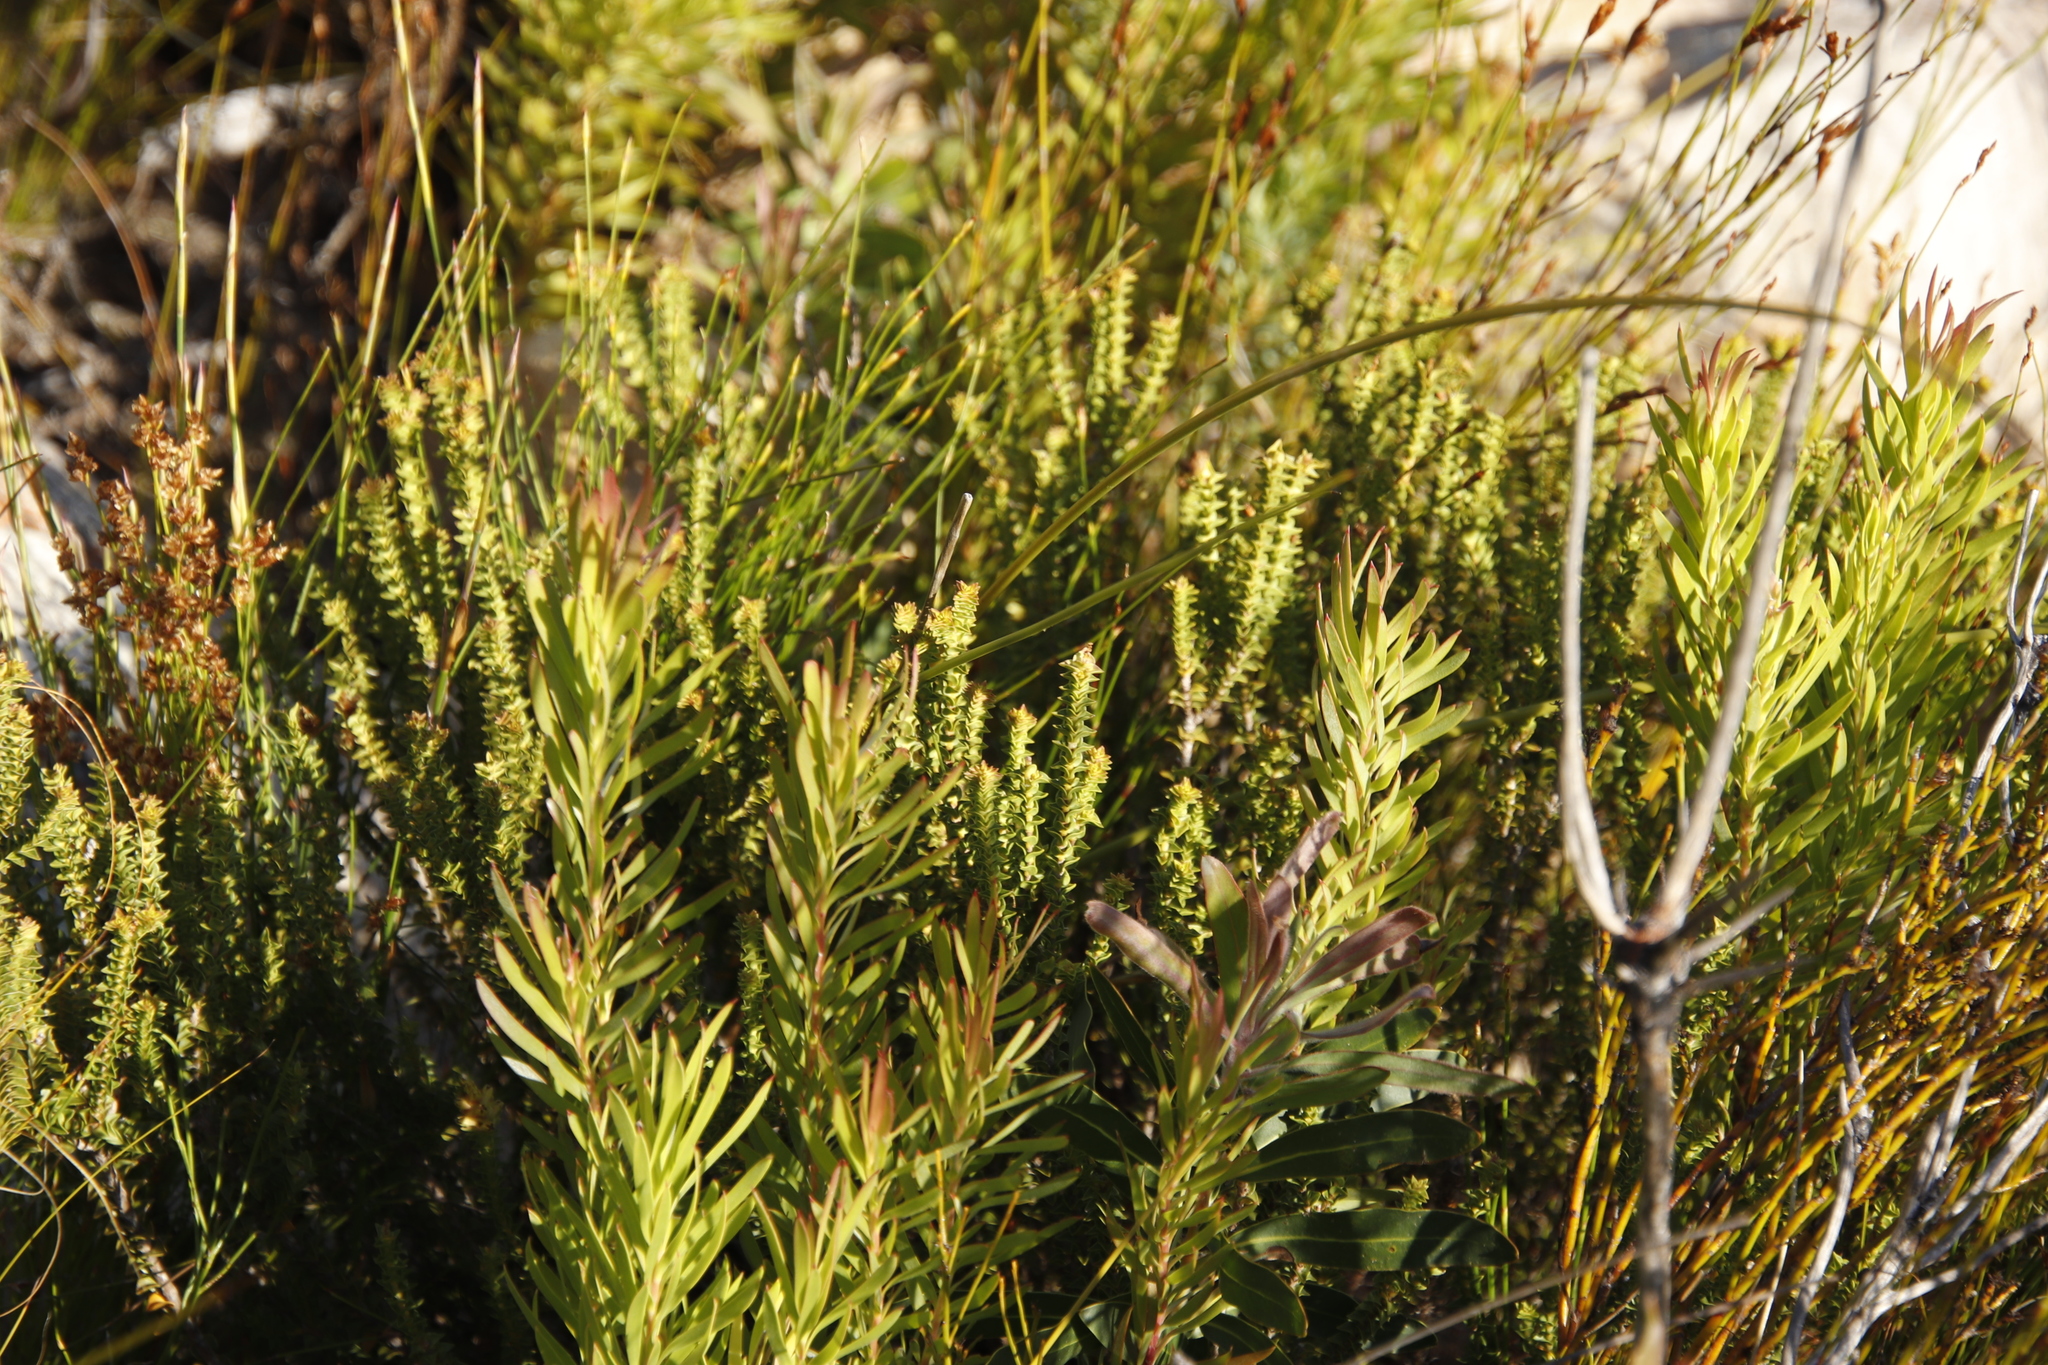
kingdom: Plantae
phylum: Tracheophyta
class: Magnoliopsida
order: Myrtales
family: Penaeaceae
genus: Penaea
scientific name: Penaea mucronata
